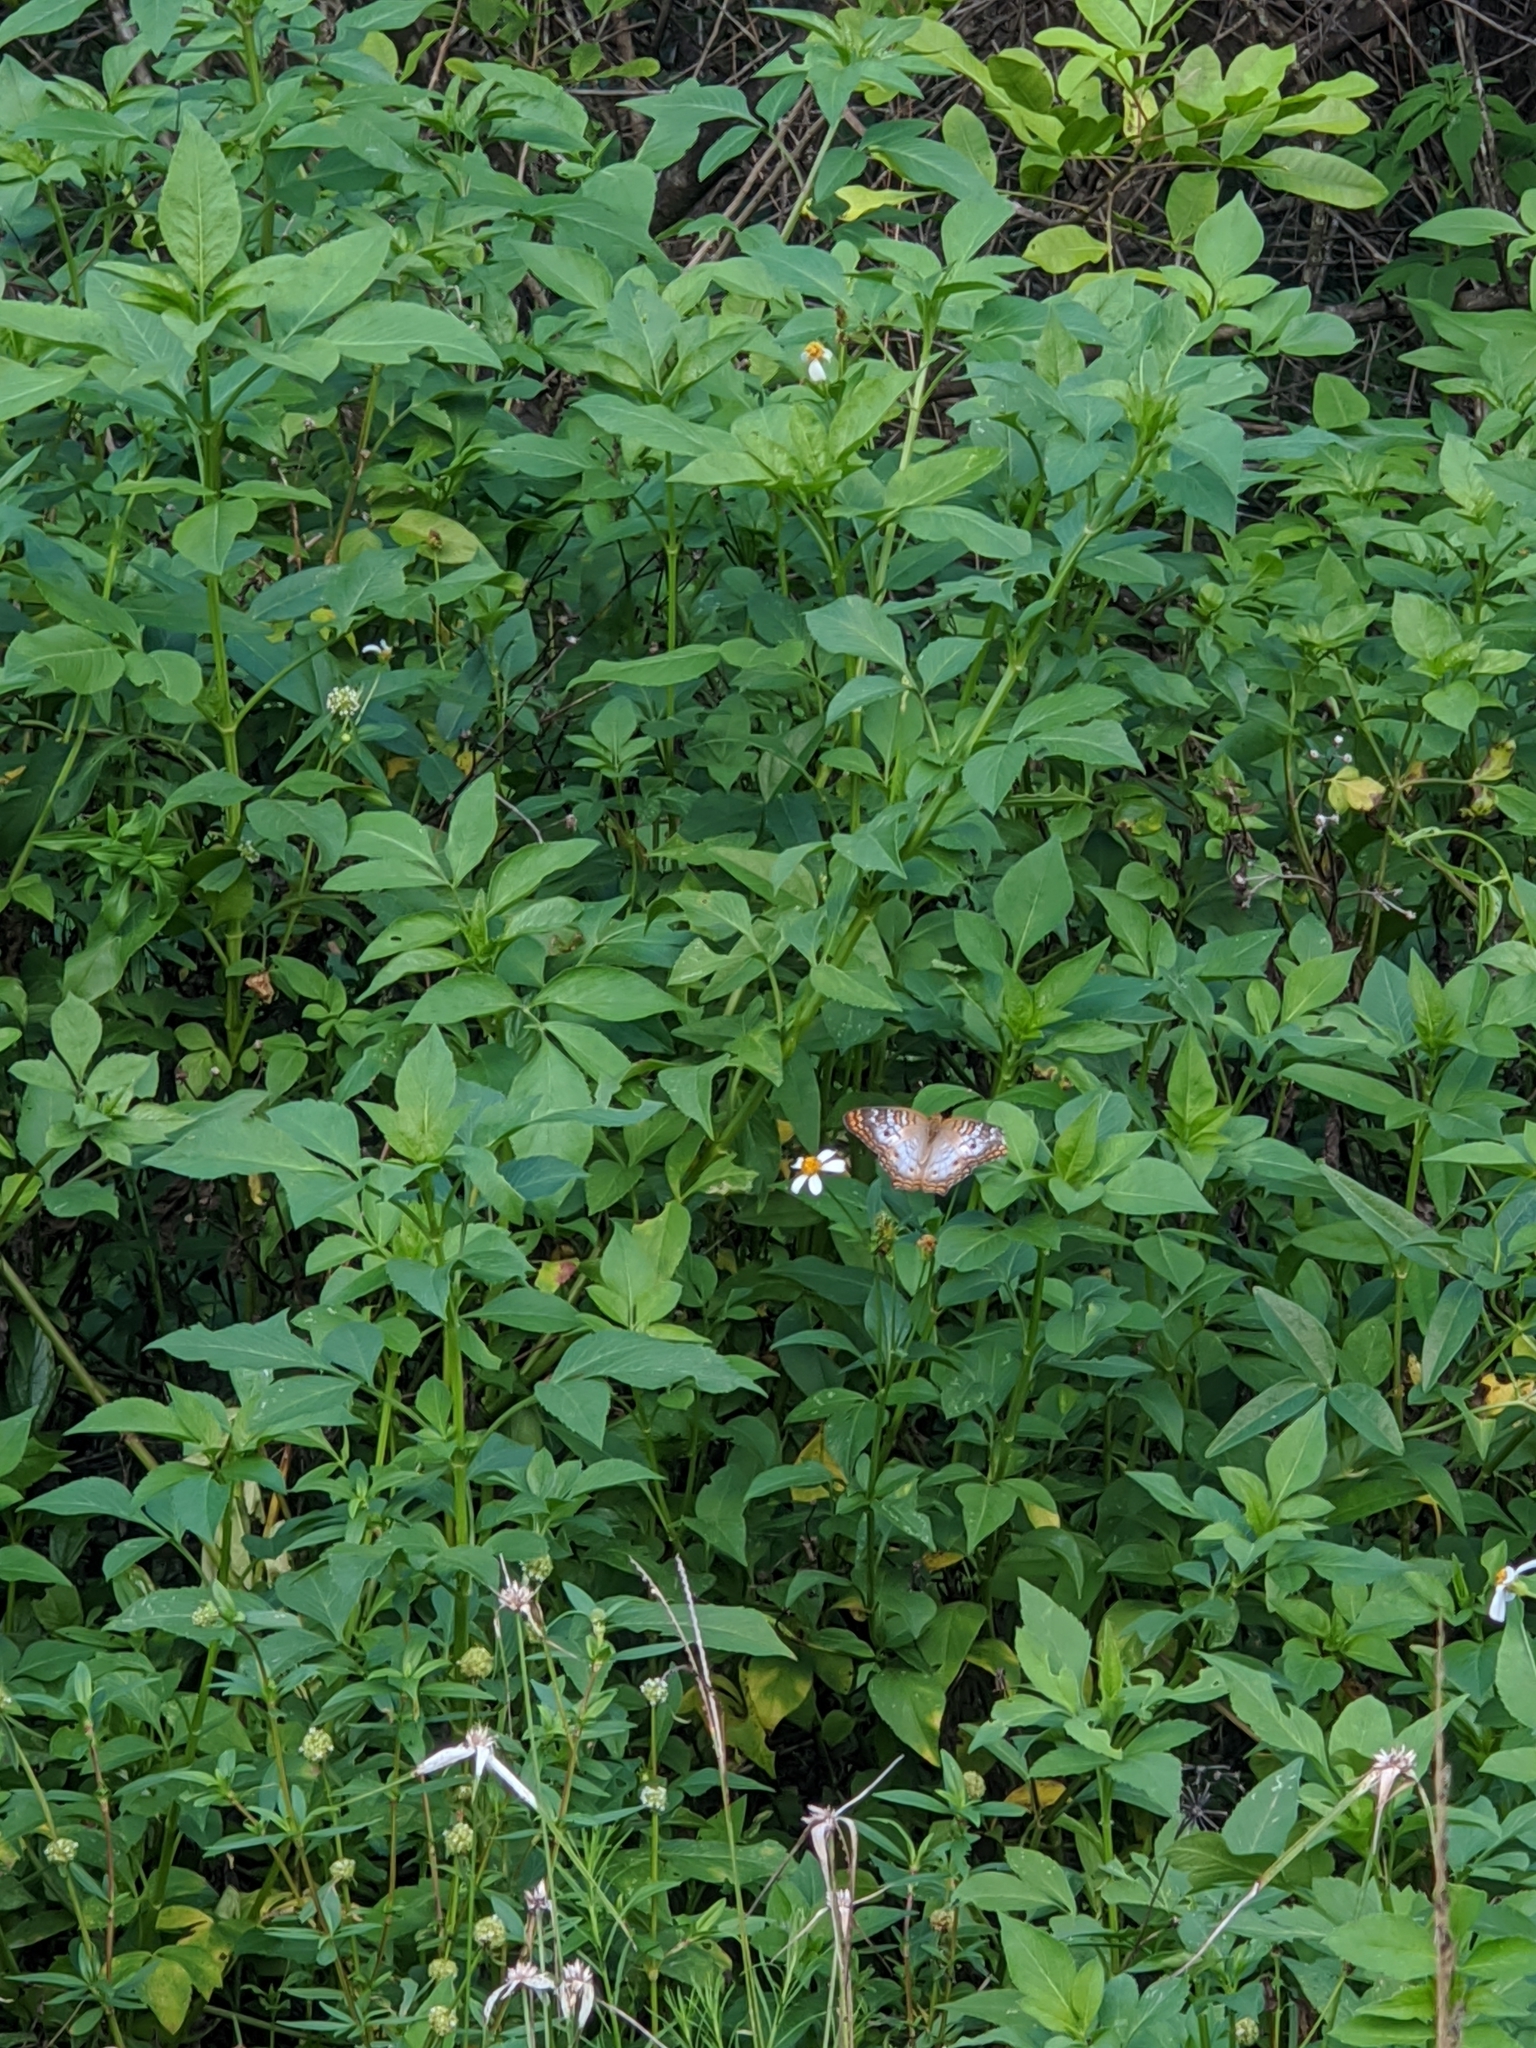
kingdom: Animalia
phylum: Arthropoda
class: Insecta
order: Lepidoptera
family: Nymphalidae
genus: Anartia
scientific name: Anartia jatrophae
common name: White peacock
